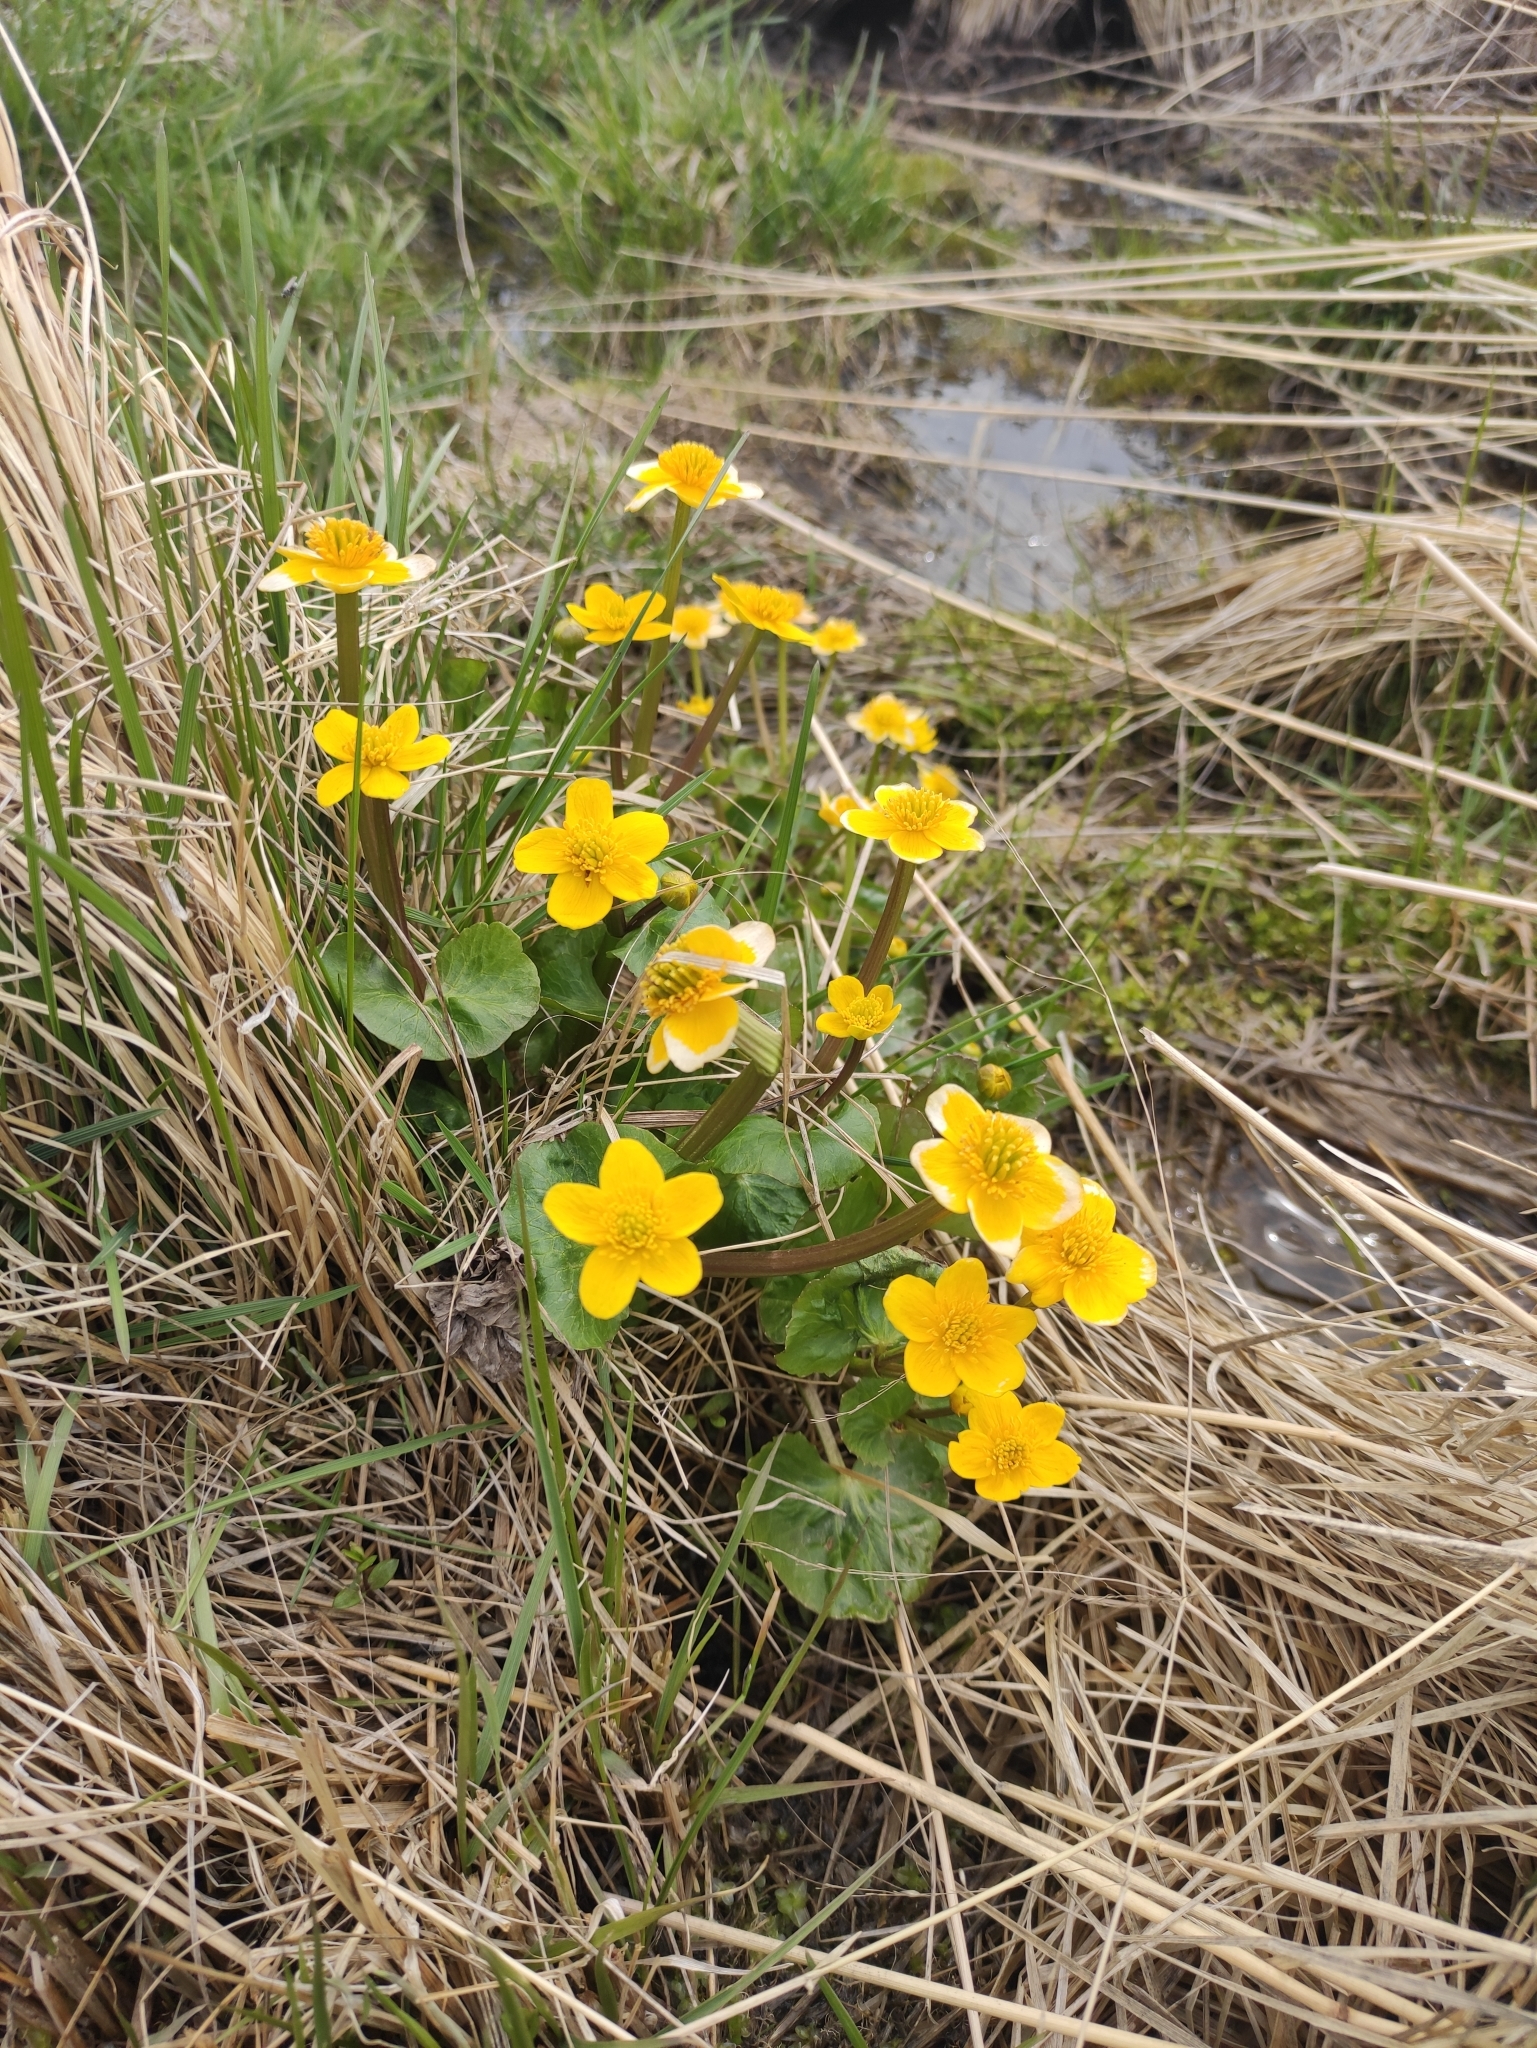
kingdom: Plantae
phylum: Tracheophyta
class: Magnoliopsida
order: Ranunculales
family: Ranunculaceae
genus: Caltha
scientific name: Caltha palustris
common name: Marsh marigold
